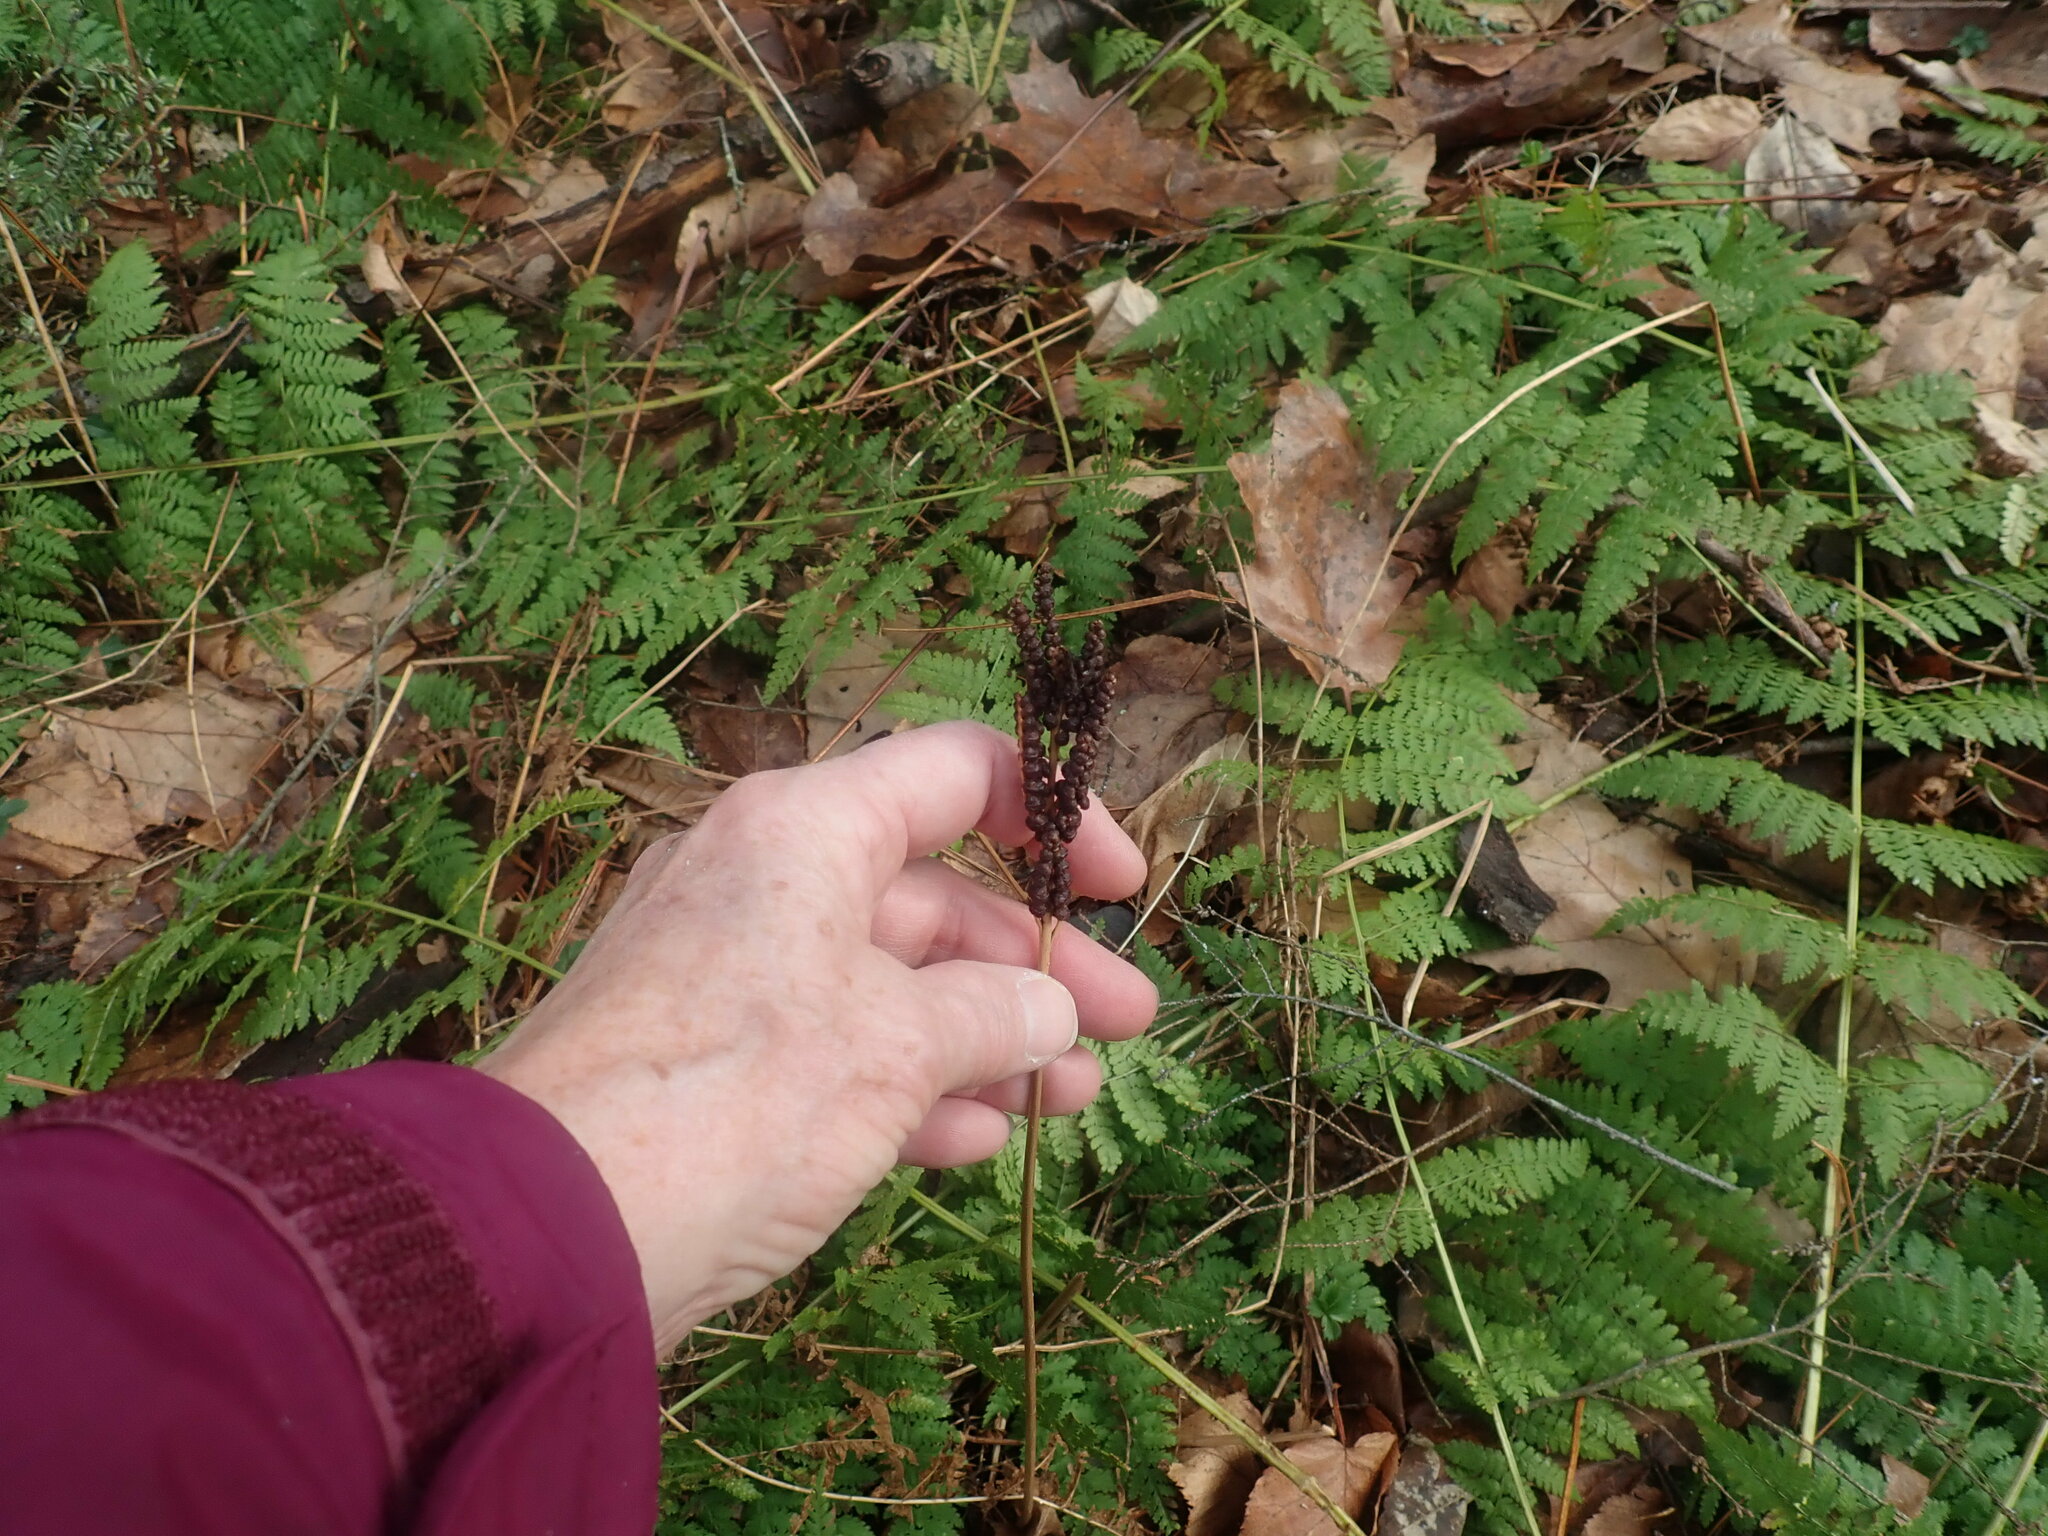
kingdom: Plantae
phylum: Tracheophyta
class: Polypodiopsida
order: Polypodiales
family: Onocleaceae
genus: Onoclea
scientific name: Onoclea sensibilis
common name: Sensitive fern
